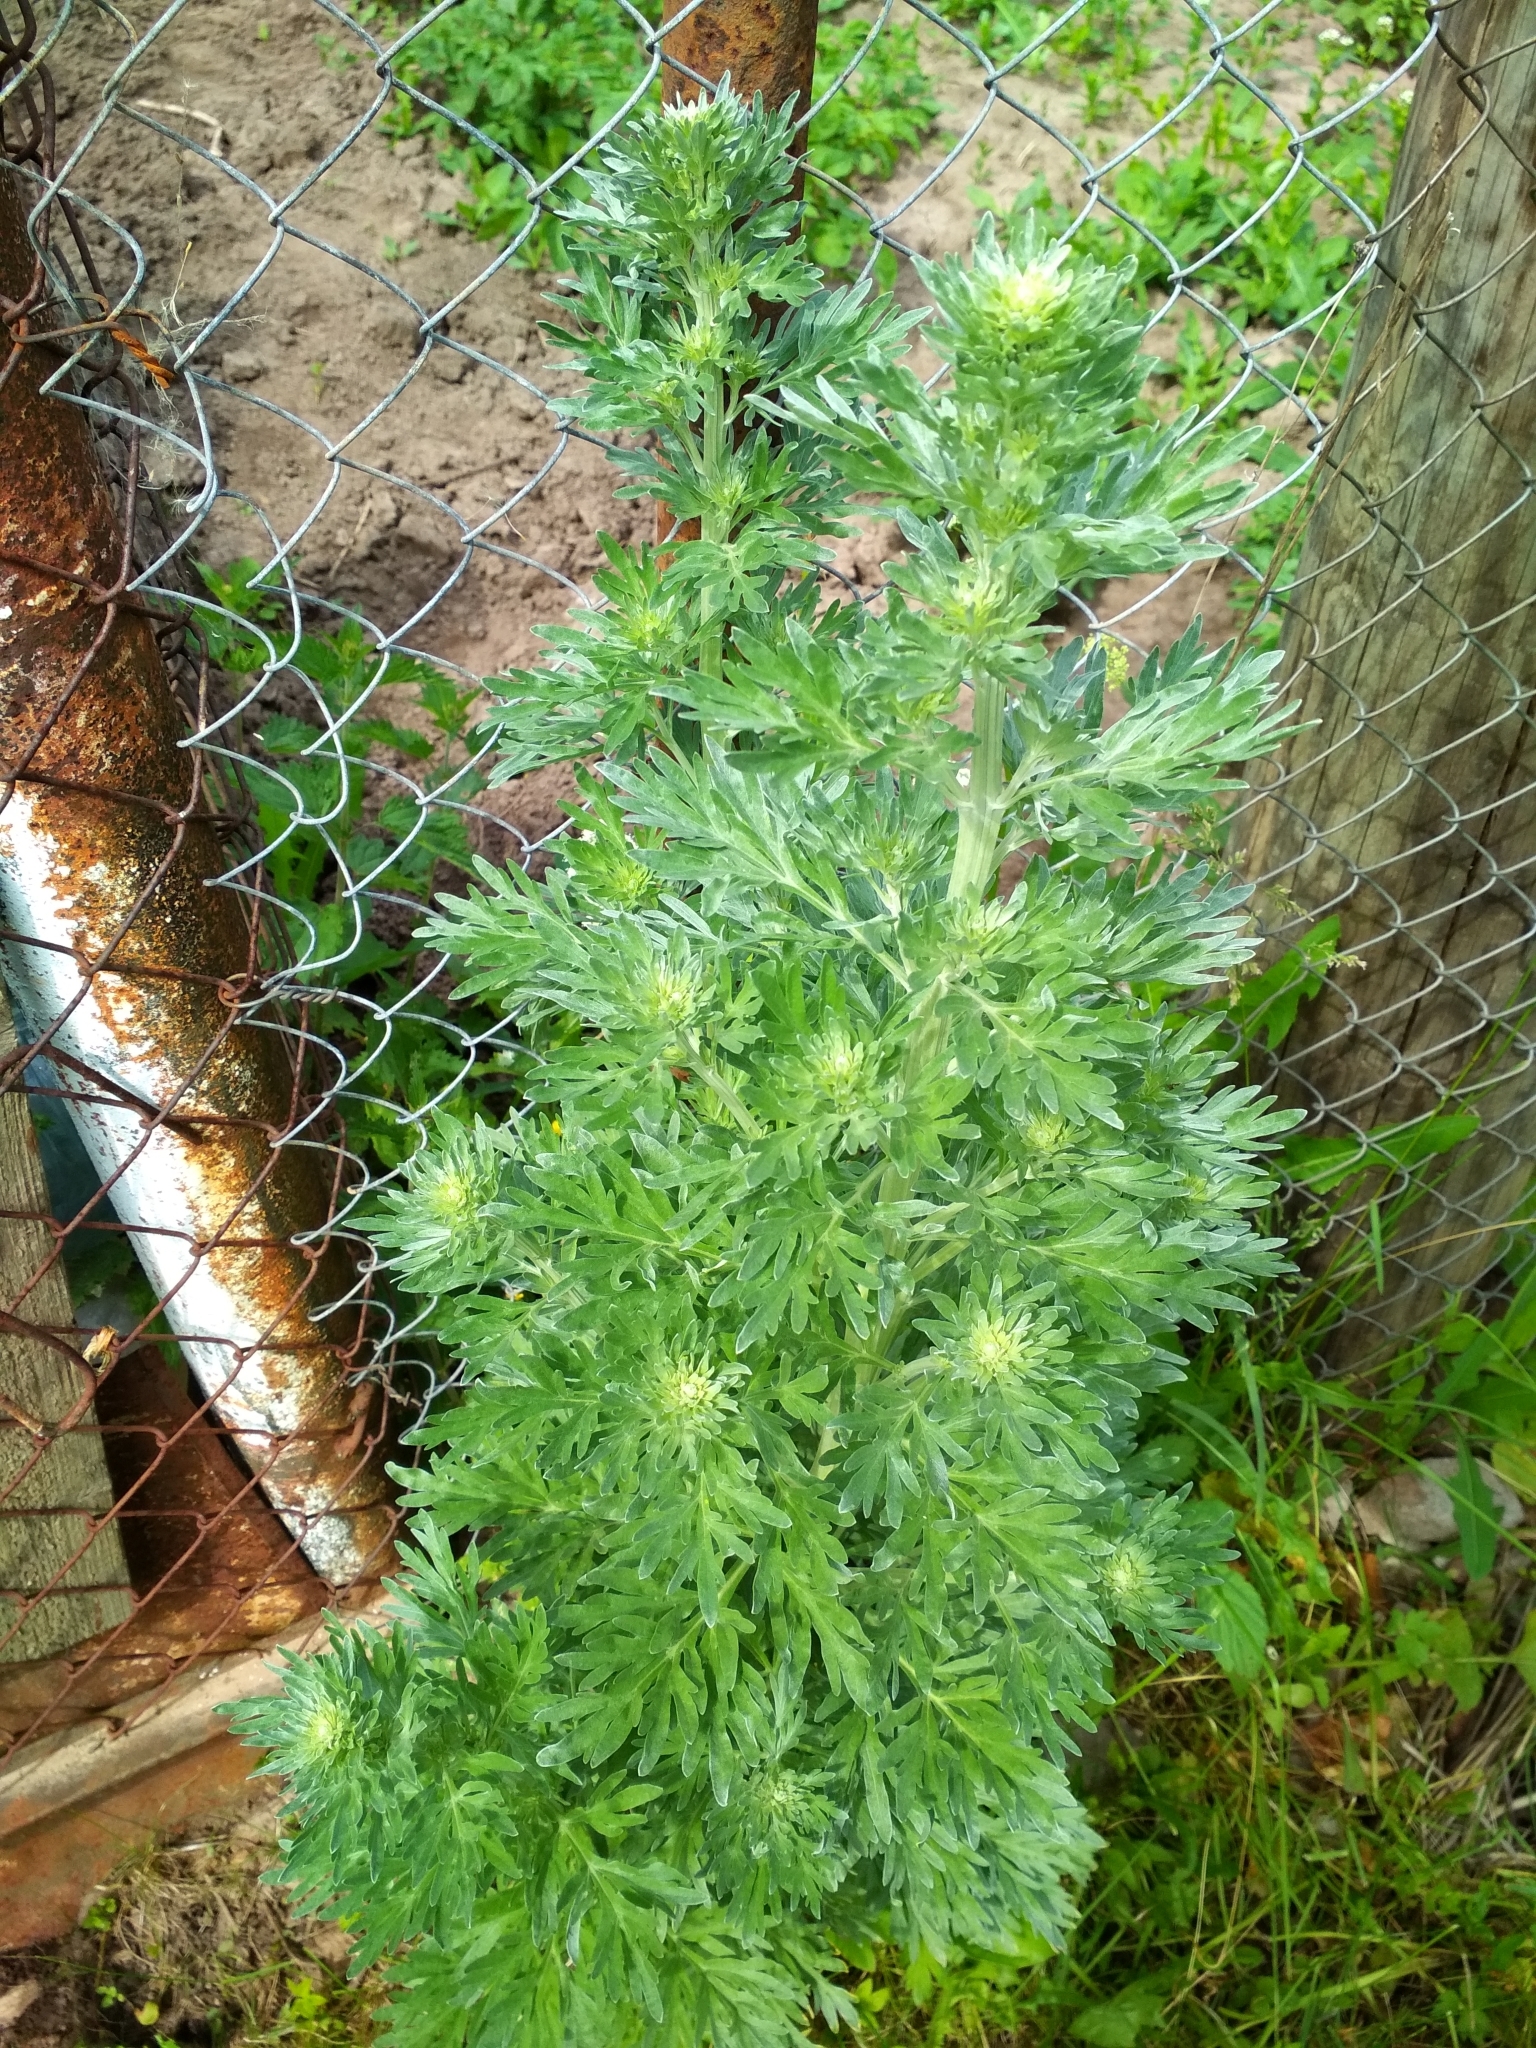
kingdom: Plantae
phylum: Tracheophyta
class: Magnoliopsida
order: Asterales
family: Asteraceae
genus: Artemisia
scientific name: Artemisia absinthium
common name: Wormwood
